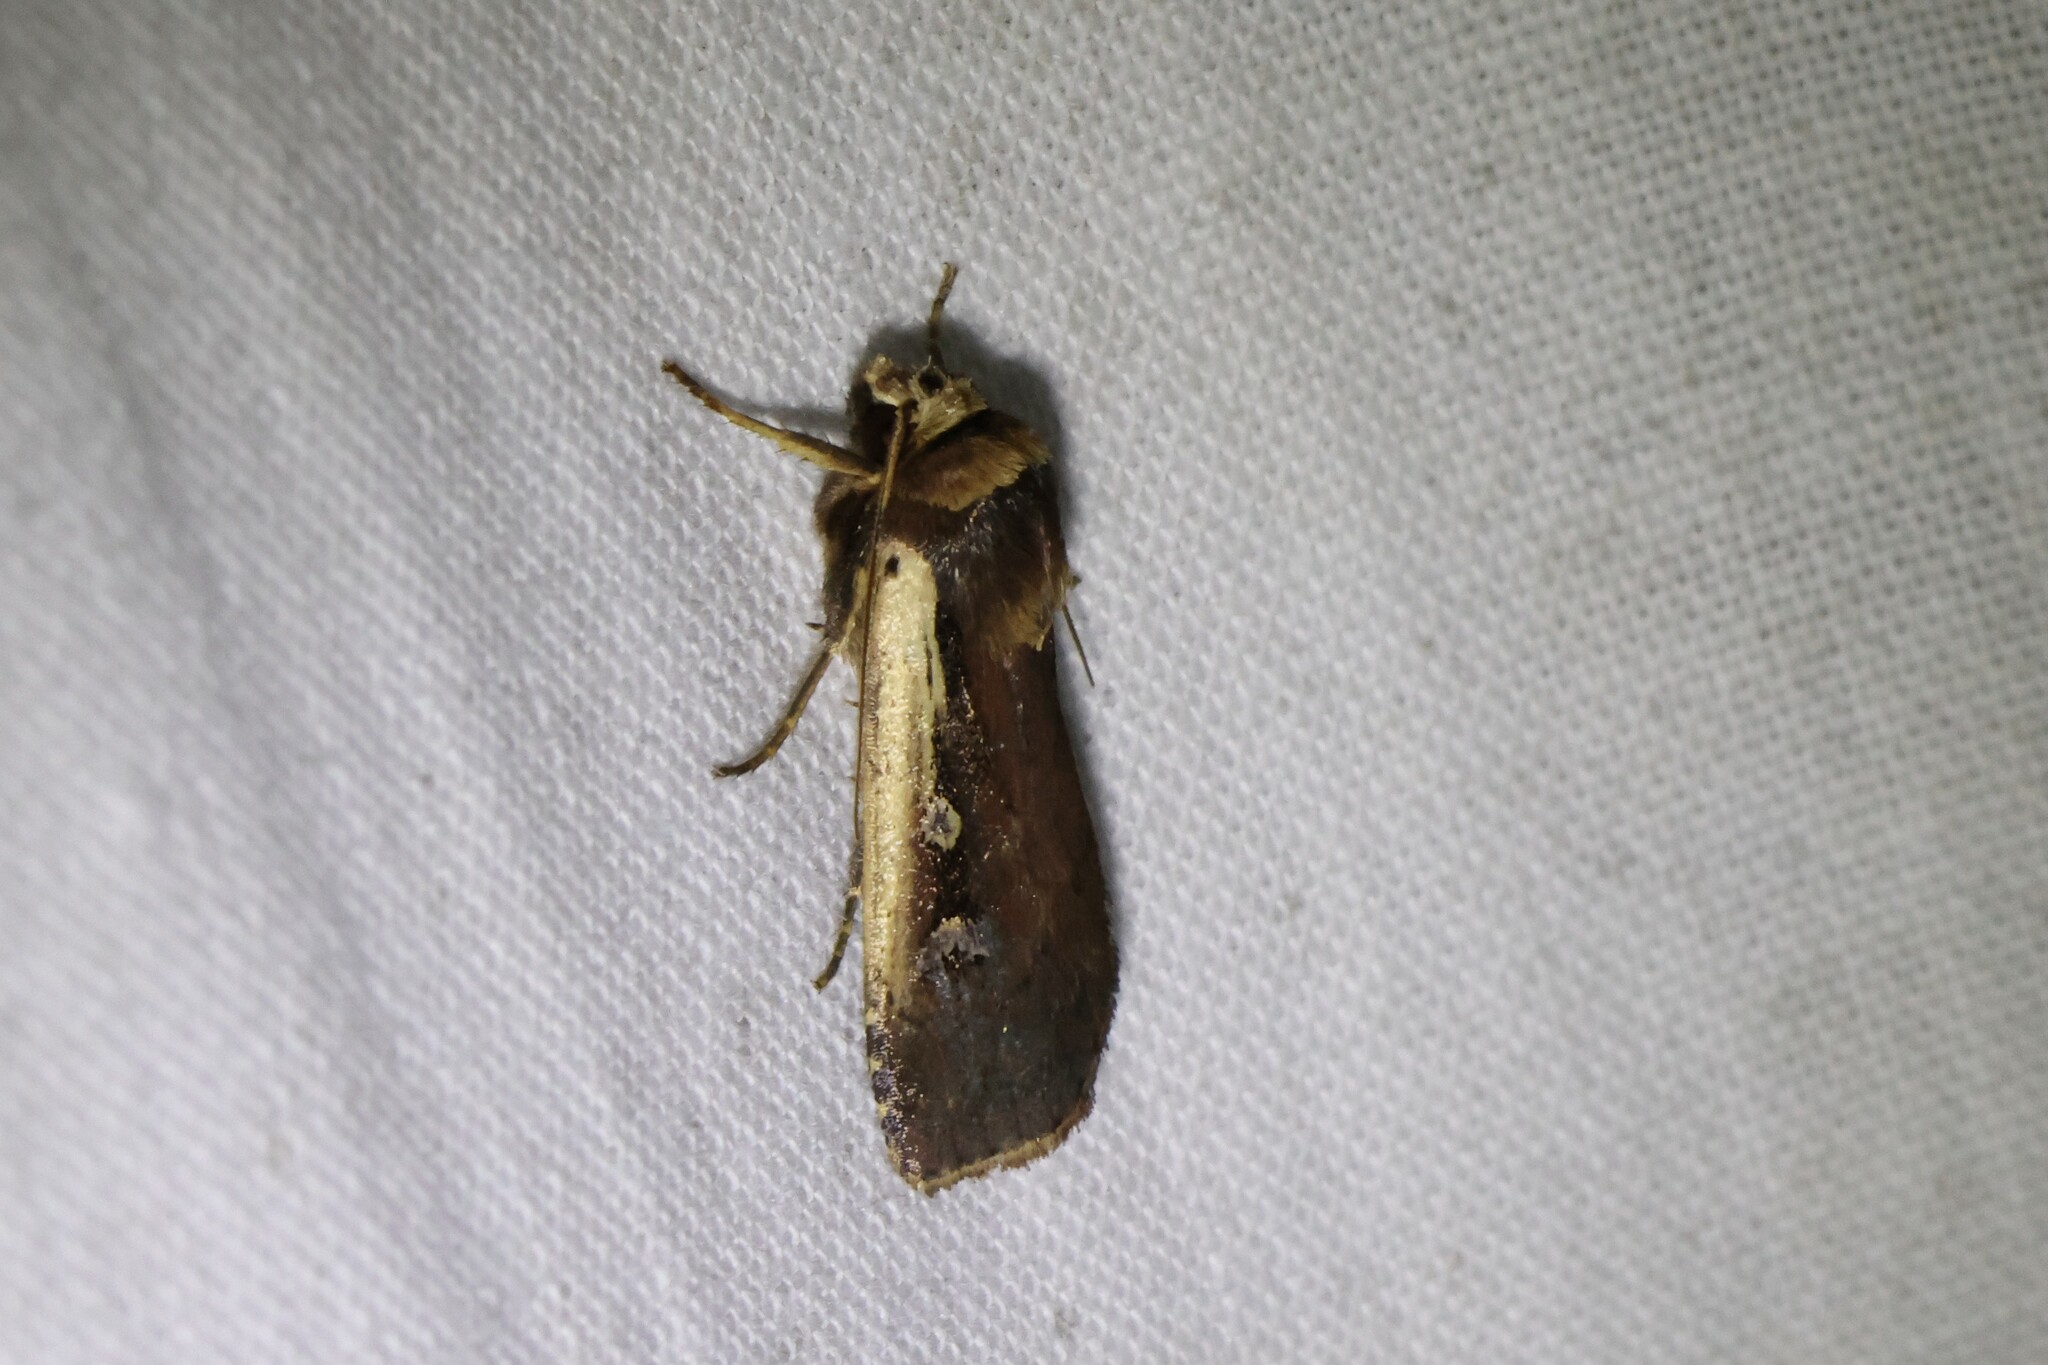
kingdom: Animalia
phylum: Arthropoda
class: Insecta
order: Lepidoptera
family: Noctuidae
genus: Ochropleura
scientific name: Ochropleura implecta
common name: Flame-shouldered dart
